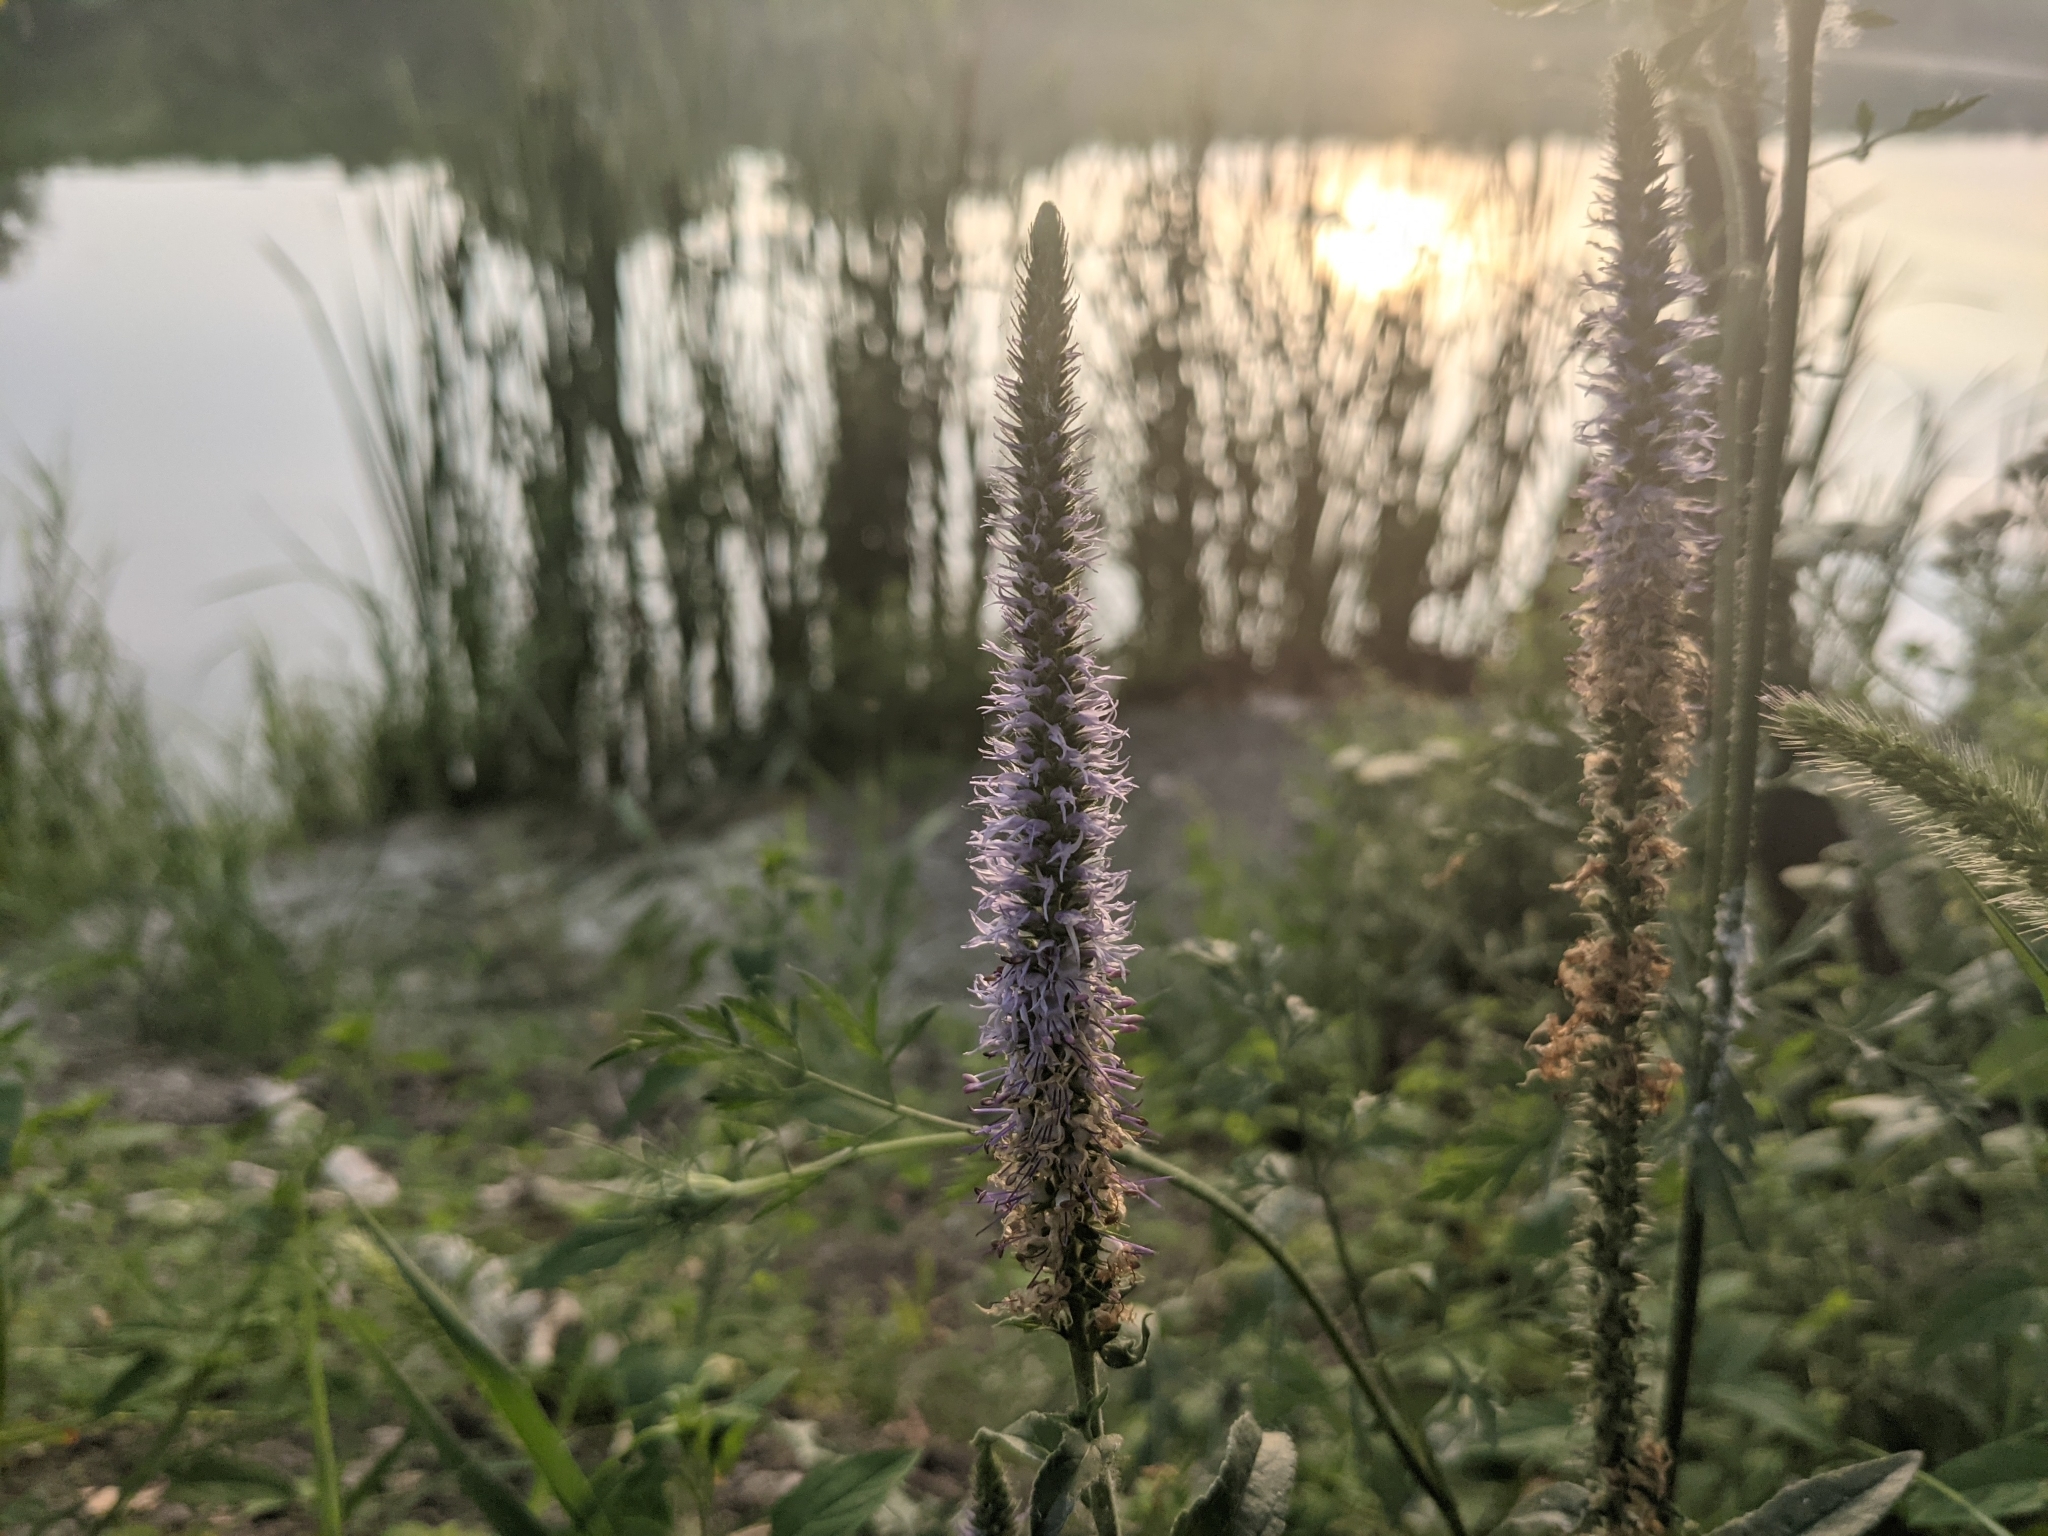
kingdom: Plantae
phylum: Tracheophyta
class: Magnoliopsida
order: Lamiales
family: Plantaginaceae
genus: Veronica
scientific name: Veronica orchidea
